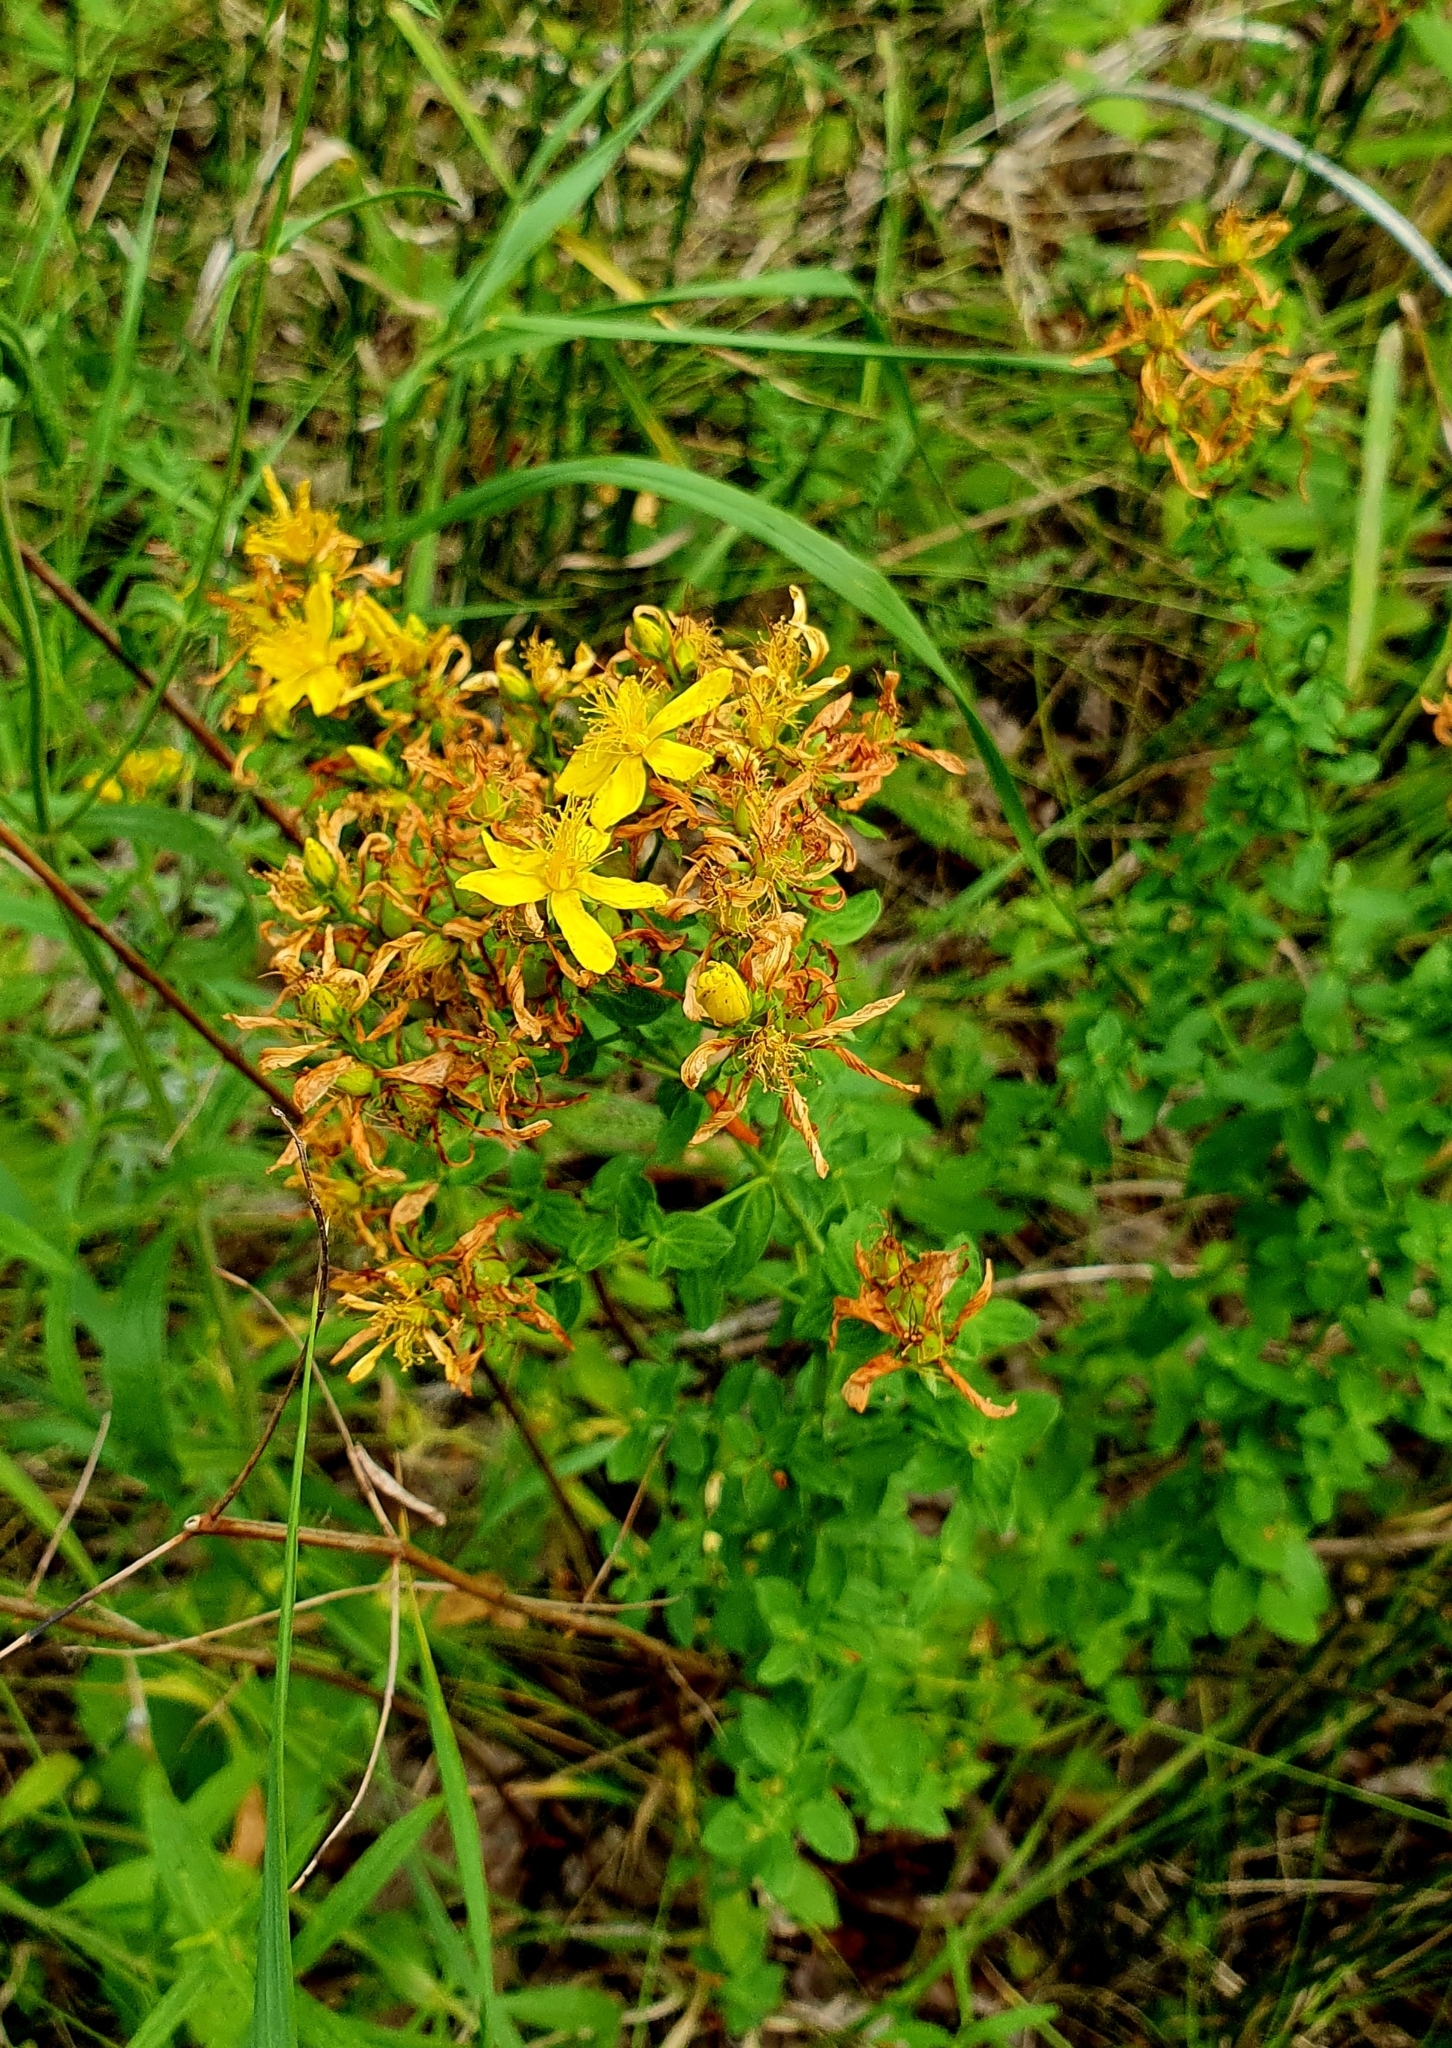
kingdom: Plantae
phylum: Tracheophyta
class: Magnoliopsida
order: Malpighiales
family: Hypericaceae
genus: Hypericum
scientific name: Hypericum perforatum
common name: Common st. johnswort
